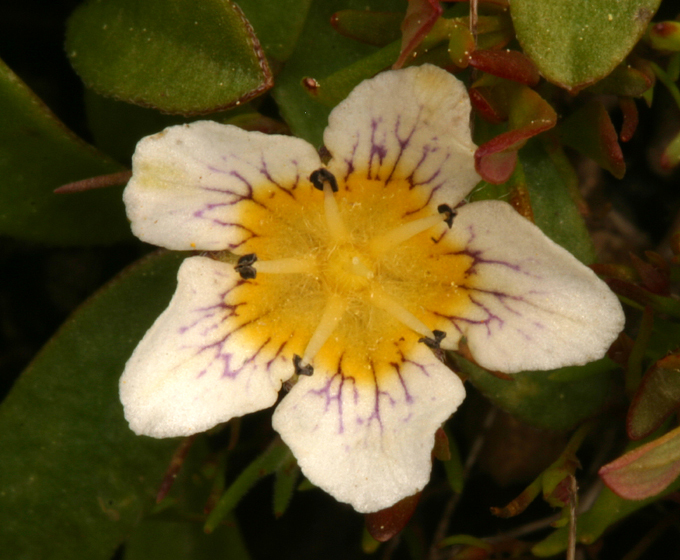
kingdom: Plantae
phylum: Tracheophyta
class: Magnoliopsida
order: Boraginales
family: Hydrophyllaceae
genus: Hesperochiron
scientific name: Hesperochiron pumilus
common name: Dwarf hesperochiron
